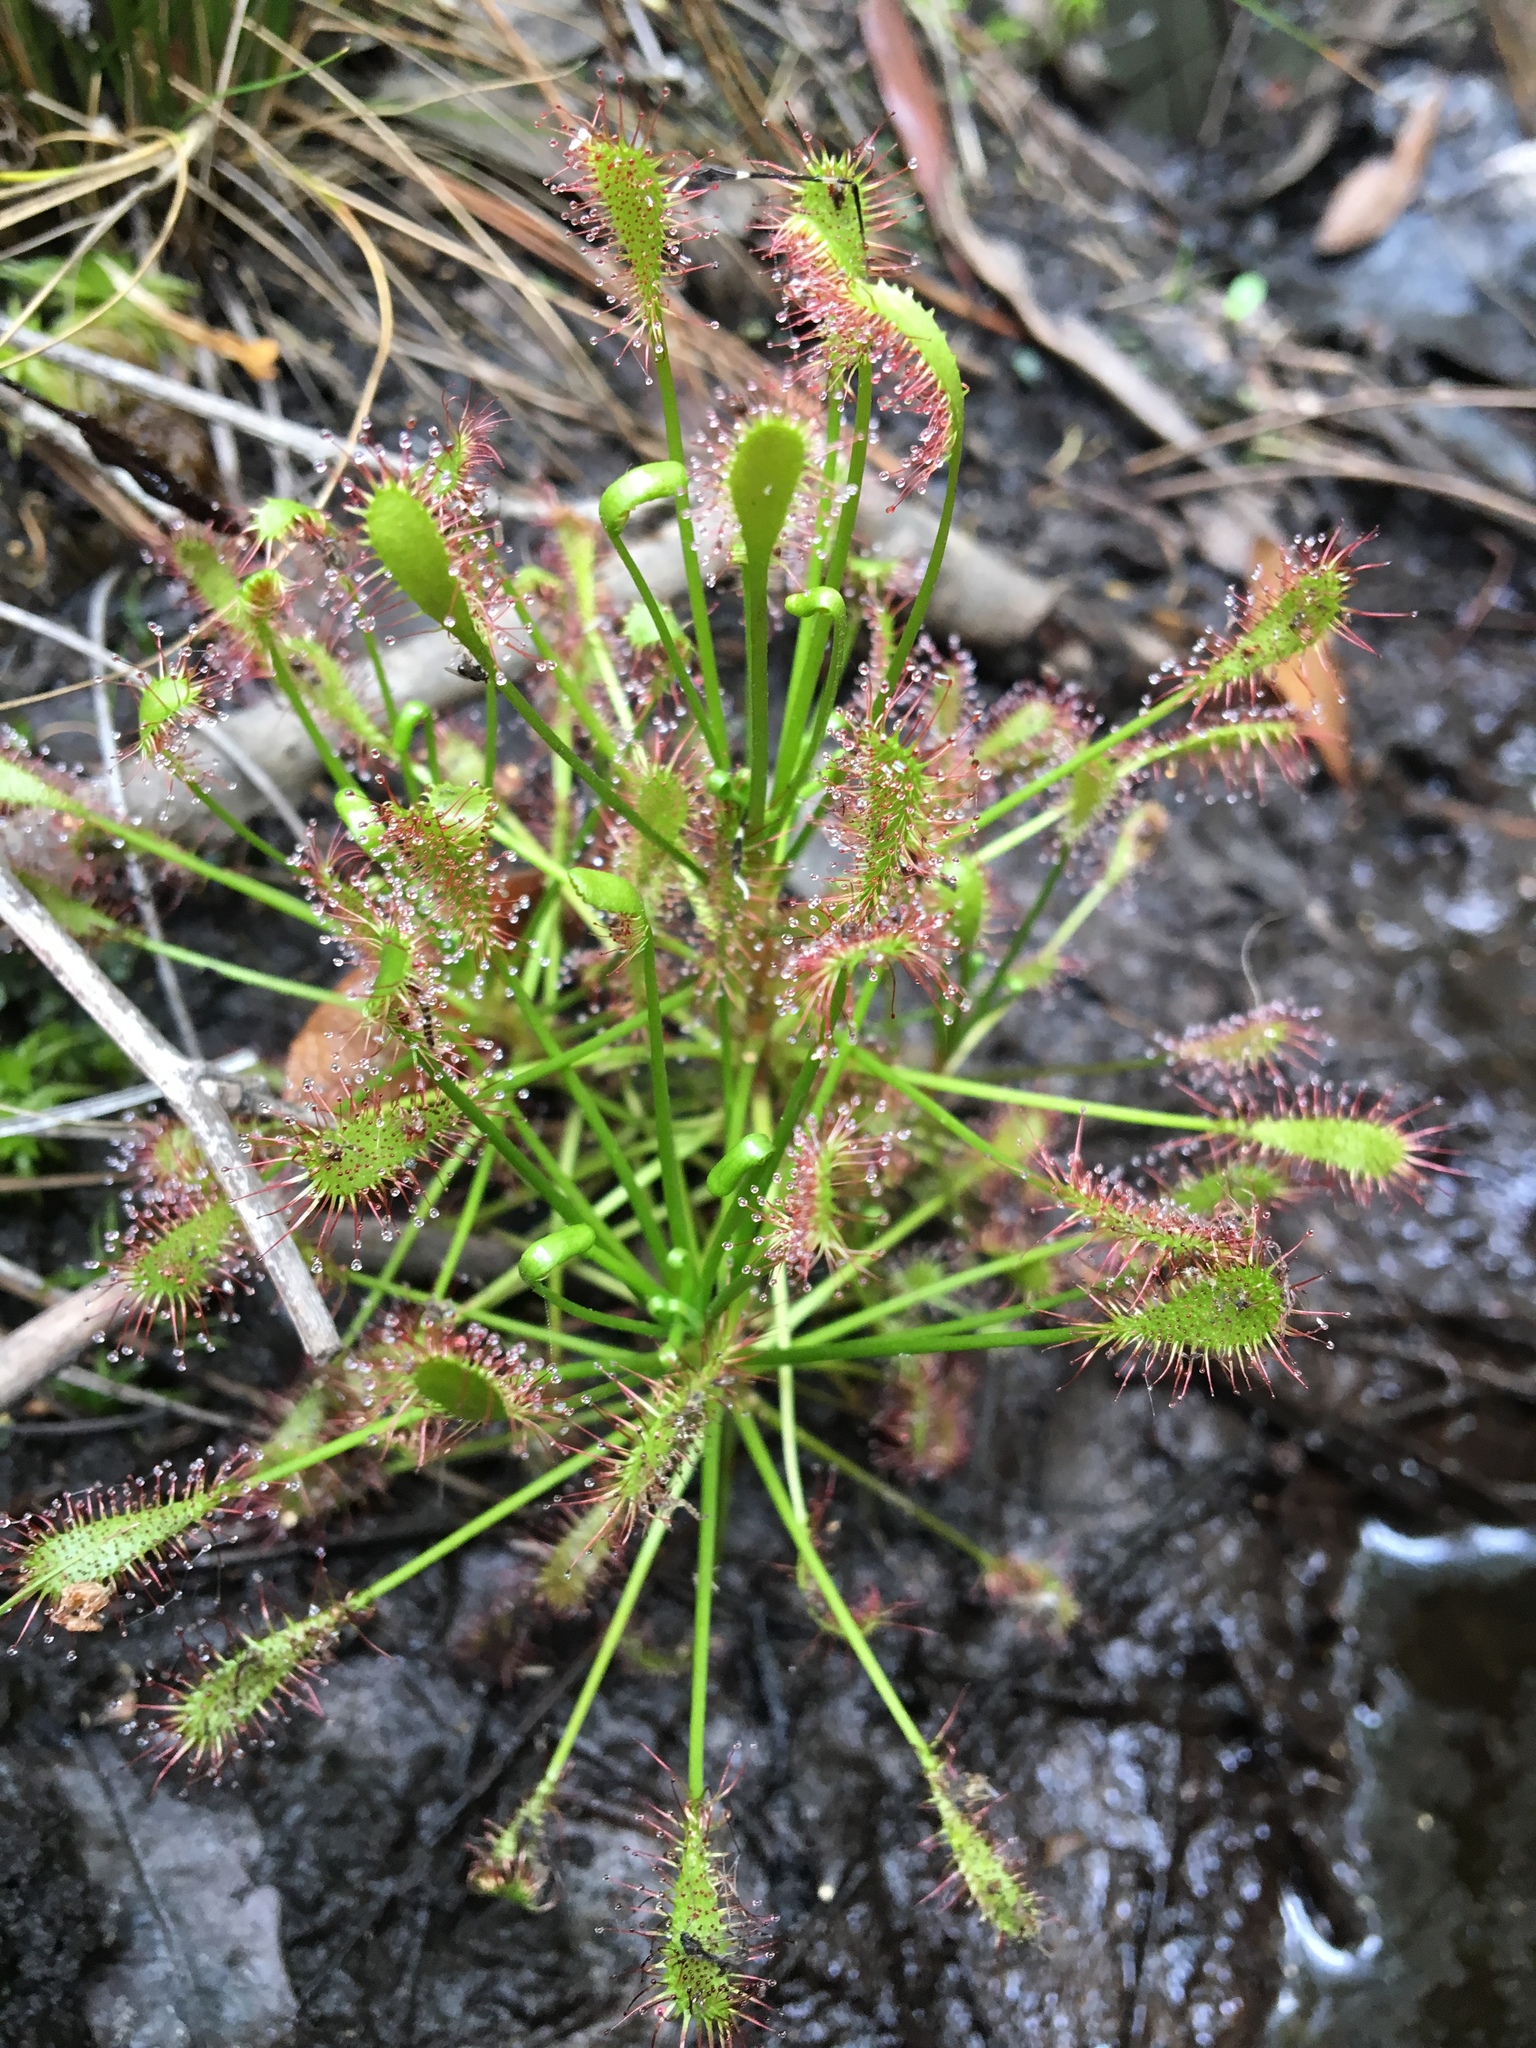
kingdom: Plantae
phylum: Tracheophyta
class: Magnoliopsida
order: Caryophyllales
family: Droseraceae
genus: Drosera
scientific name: Drosera intermedia
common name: Oblong-leaved sundew
